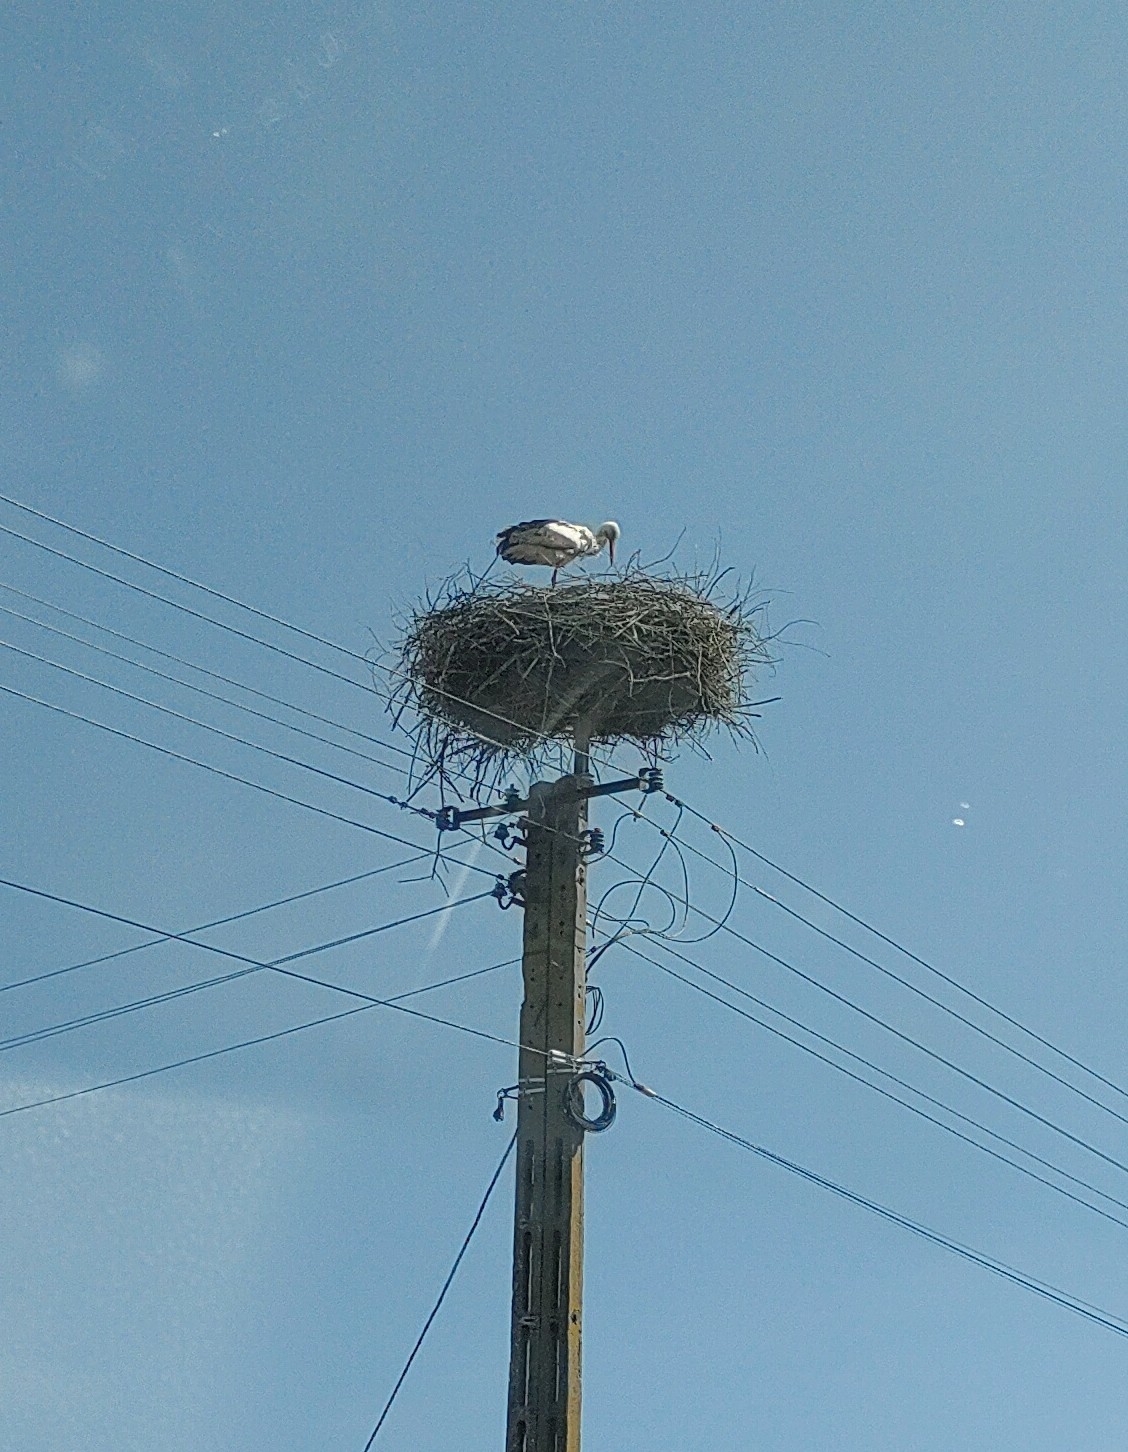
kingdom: Animalia
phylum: Chordata
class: Aves
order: Ciconiiformes
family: Ciconiidae
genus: Ciconia
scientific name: Ciconia ciconia
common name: White stork
